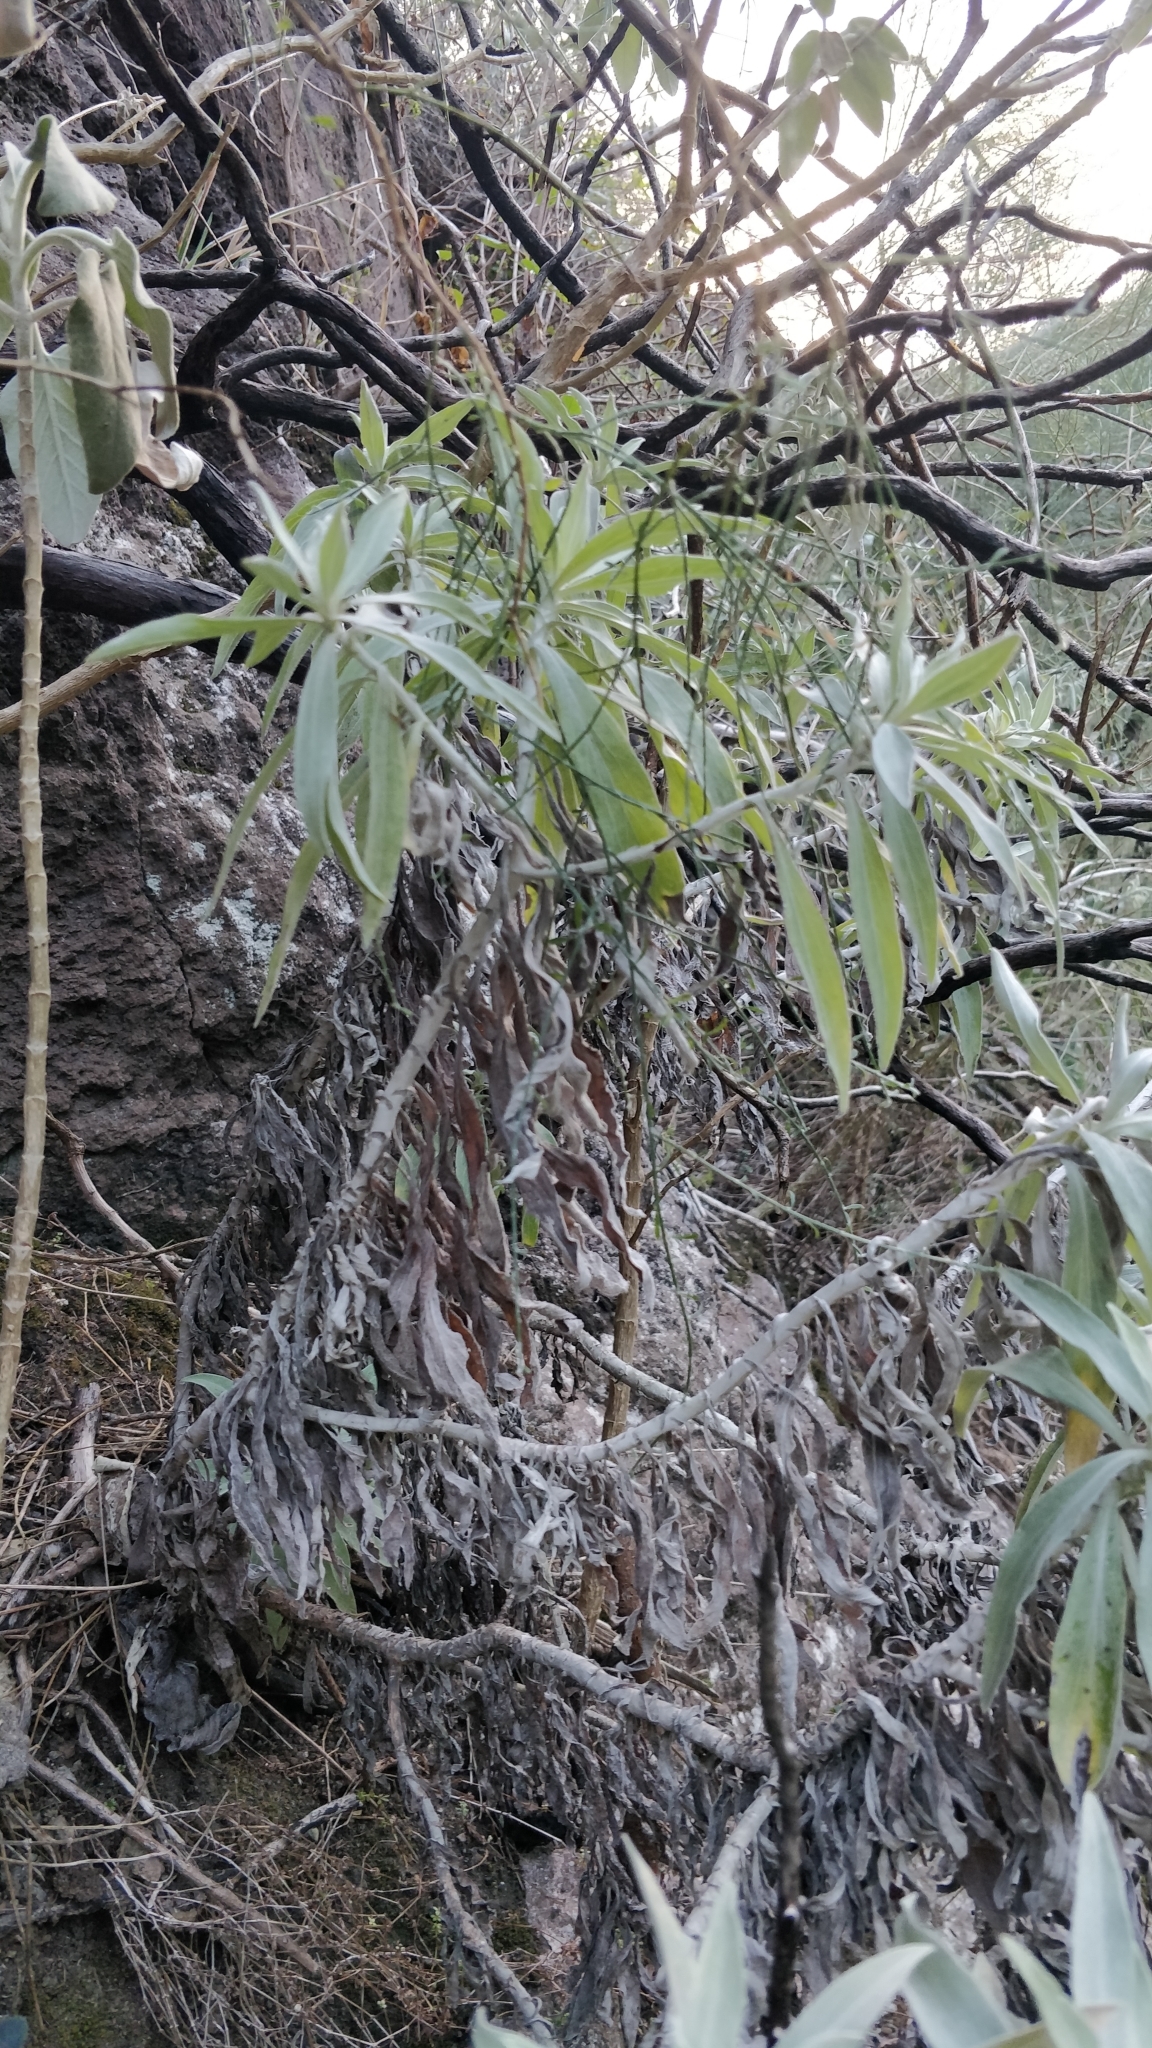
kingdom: Plantae
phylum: Tracheophyta
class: Magnoliopsida
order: Asterales
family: Asteraceae
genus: Helichrysum
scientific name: Helichrysum melaleucum
